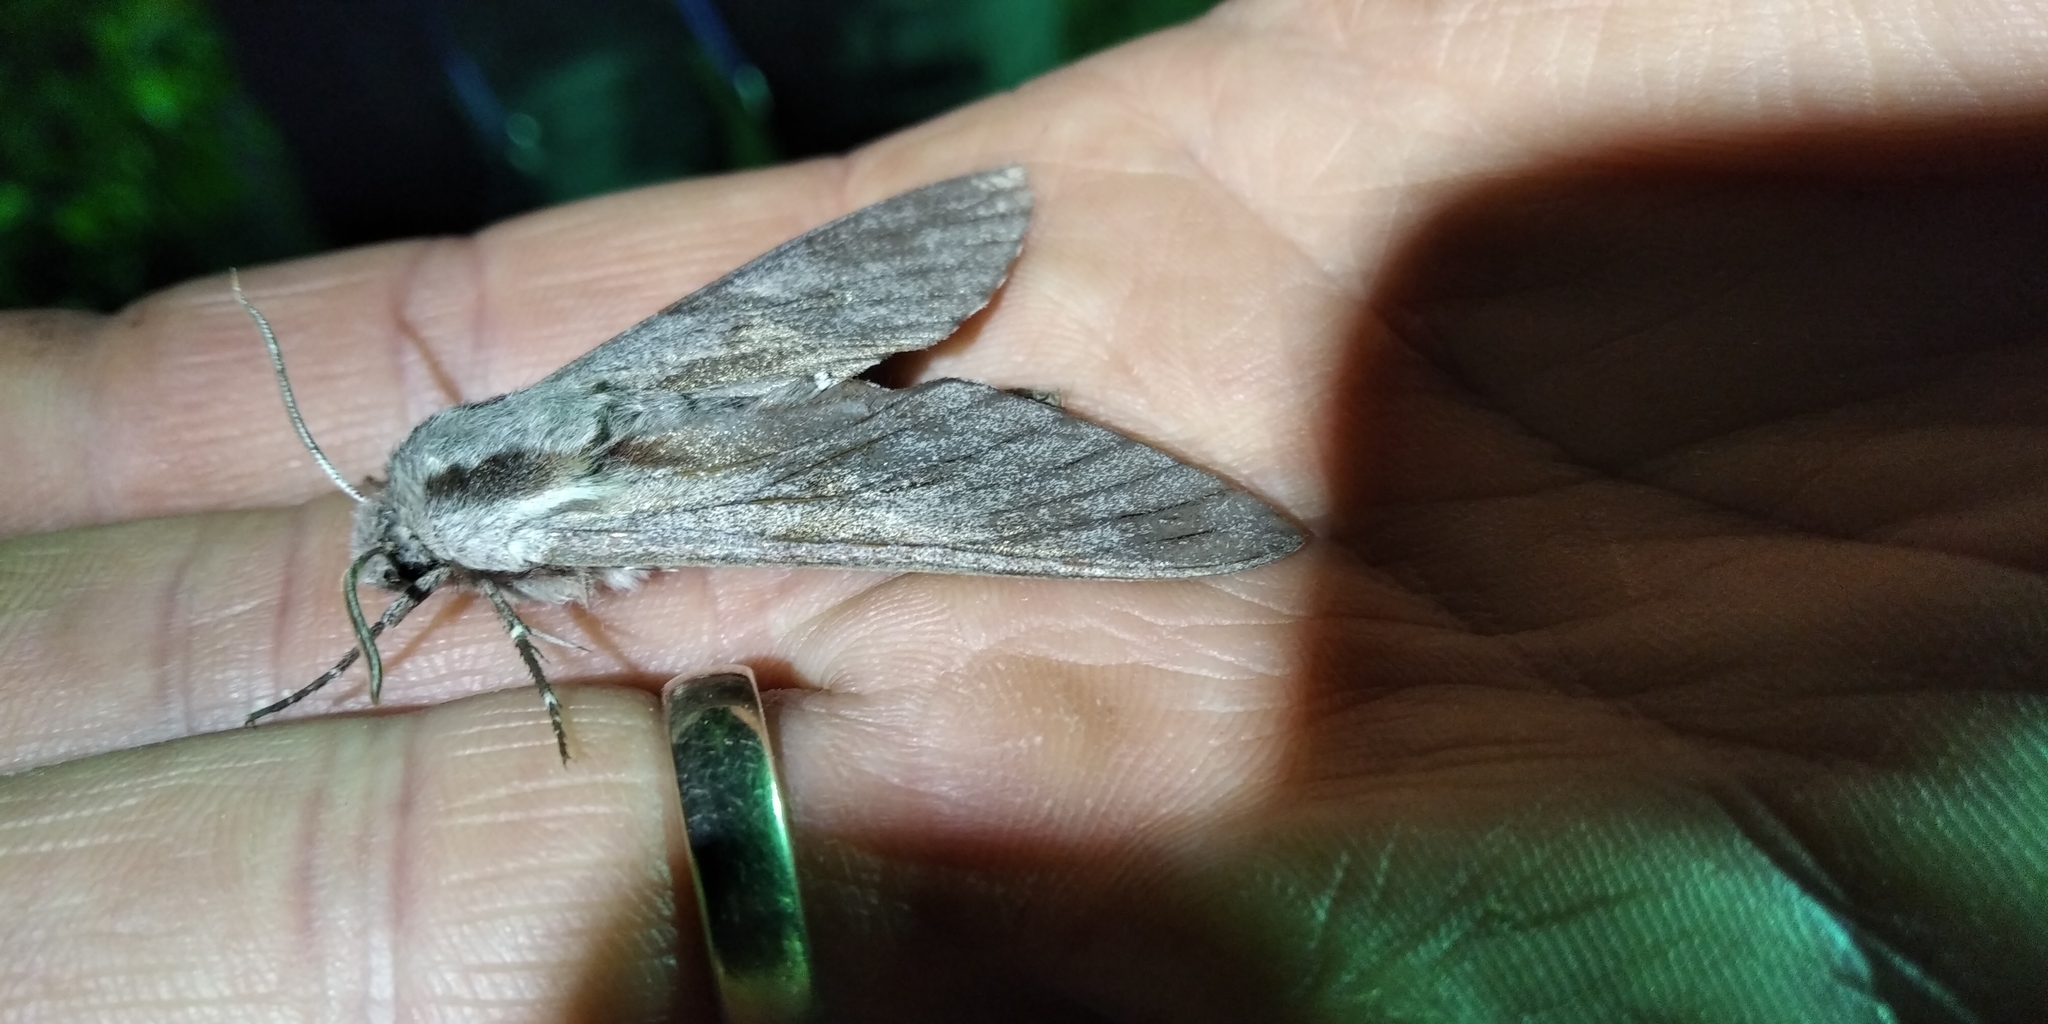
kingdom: Animalia
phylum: Arthropoda
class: Insecta
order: Lepidoptera
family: Sphingidae
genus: Sphinx
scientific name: Sphinx pinastri
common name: Pine hawk-moth
